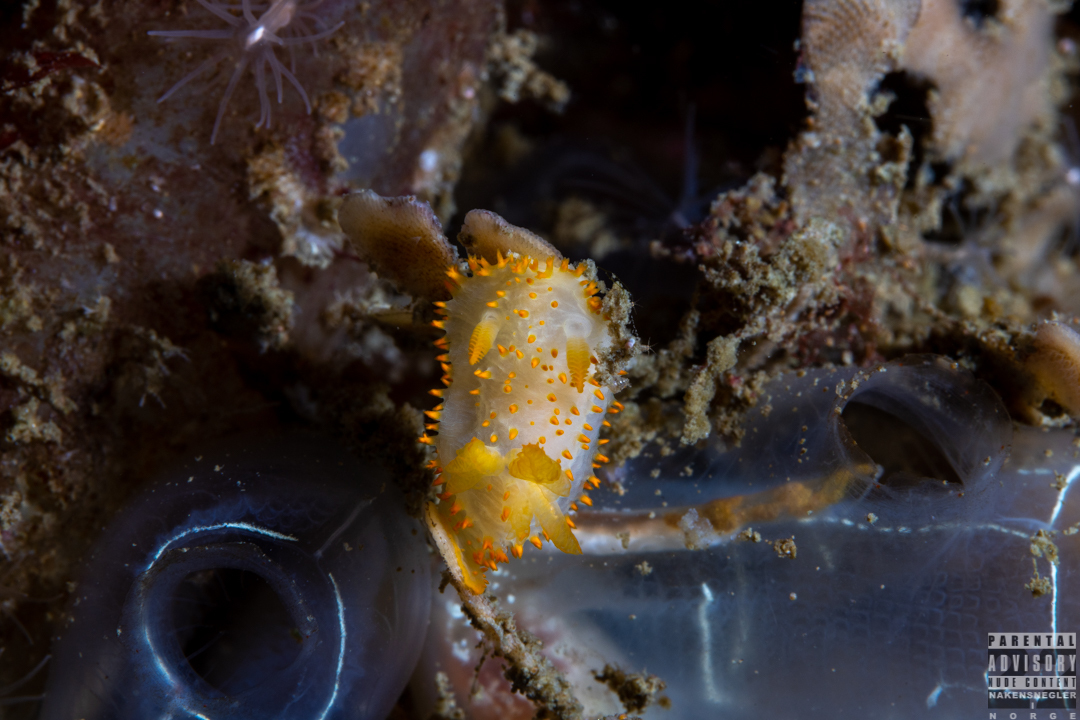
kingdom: Animalia
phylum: Mollusca
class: Gastropoda
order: Nudibranchia
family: Polyceridae
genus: Crimora
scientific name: Crimora papillata
